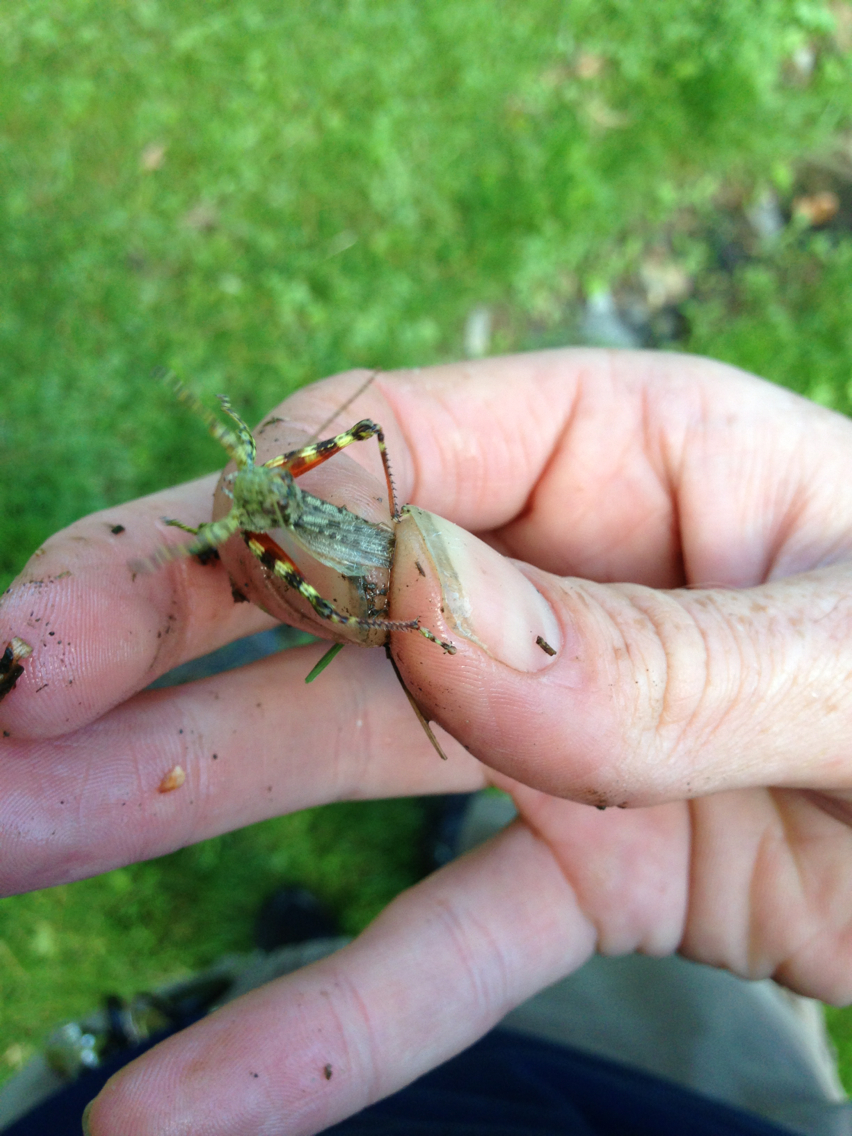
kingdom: Animalia
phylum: Arthropoda
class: Insecta
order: Orthoptera
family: Acrididae
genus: Melanoplus
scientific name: Melanoplus punctulatus
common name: Pine-tree spur-throat grasshopper
